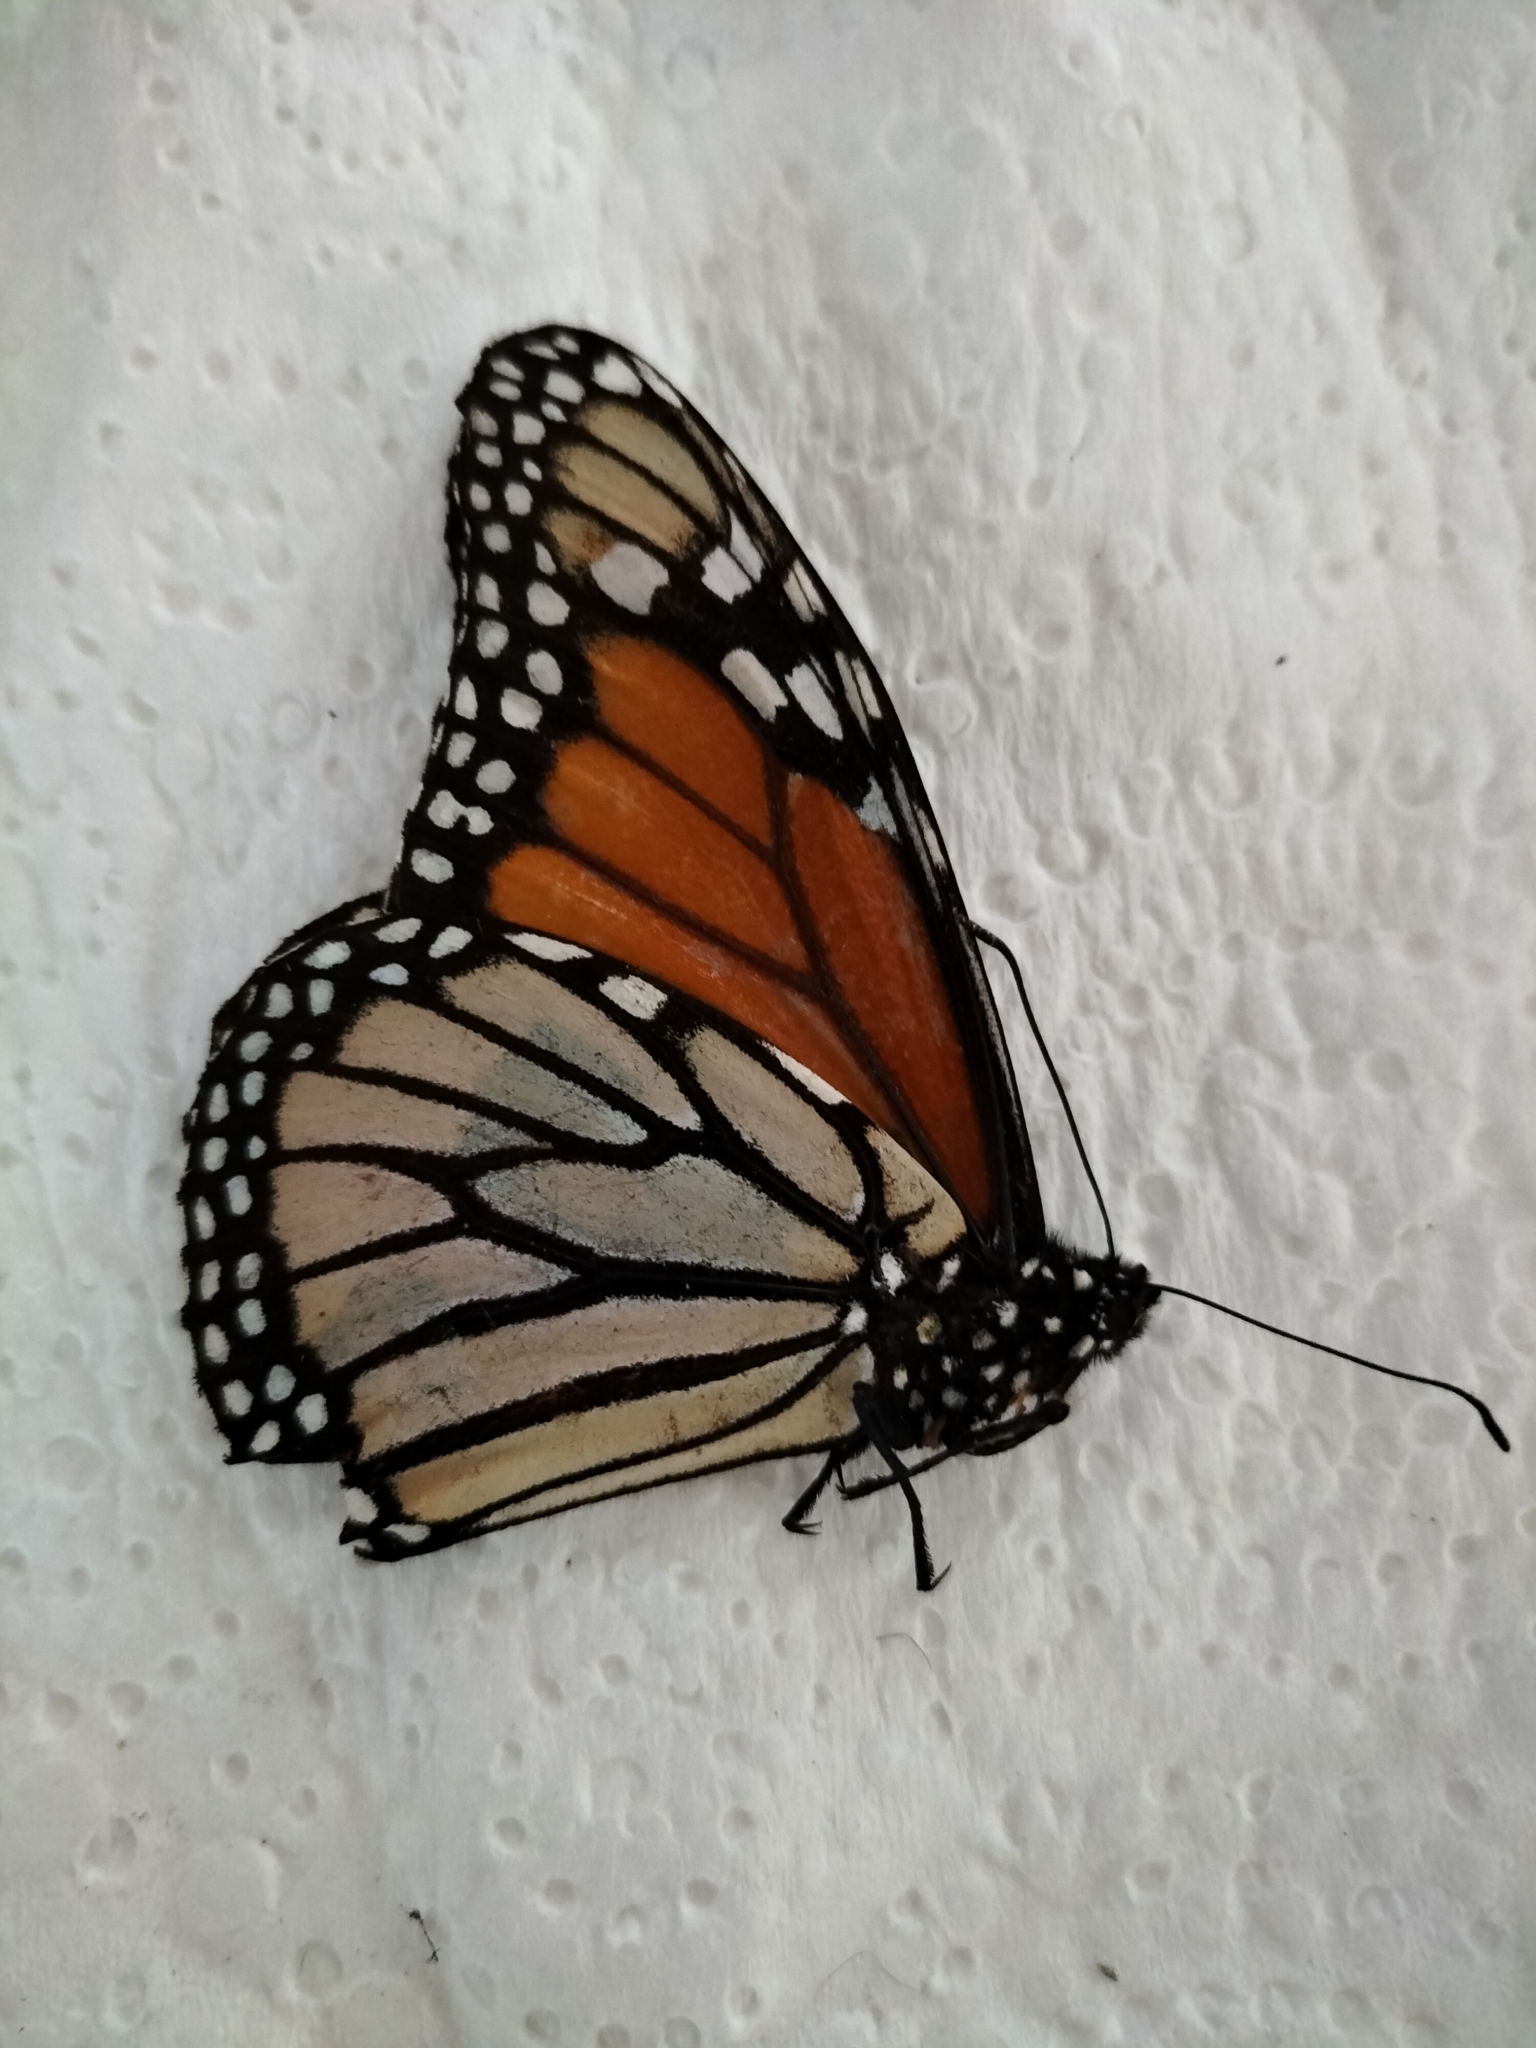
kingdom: Animalia
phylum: Arthropoda
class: Insecta
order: Lepidoptera
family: Nymphalidae
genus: Danaus
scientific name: Danaus plexippus
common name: Monarch
